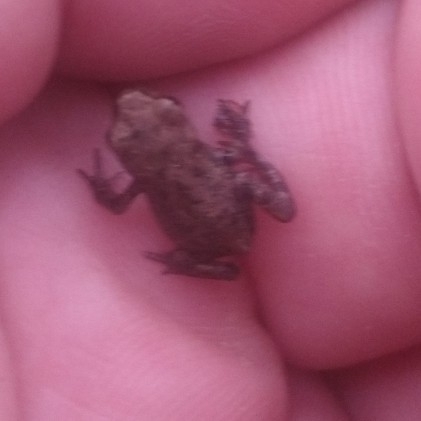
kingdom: Animalia
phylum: Chordata
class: Amphibia
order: Anura
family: Bufonidae
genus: Bufo
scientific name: Bufo bufo
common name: Common toad
